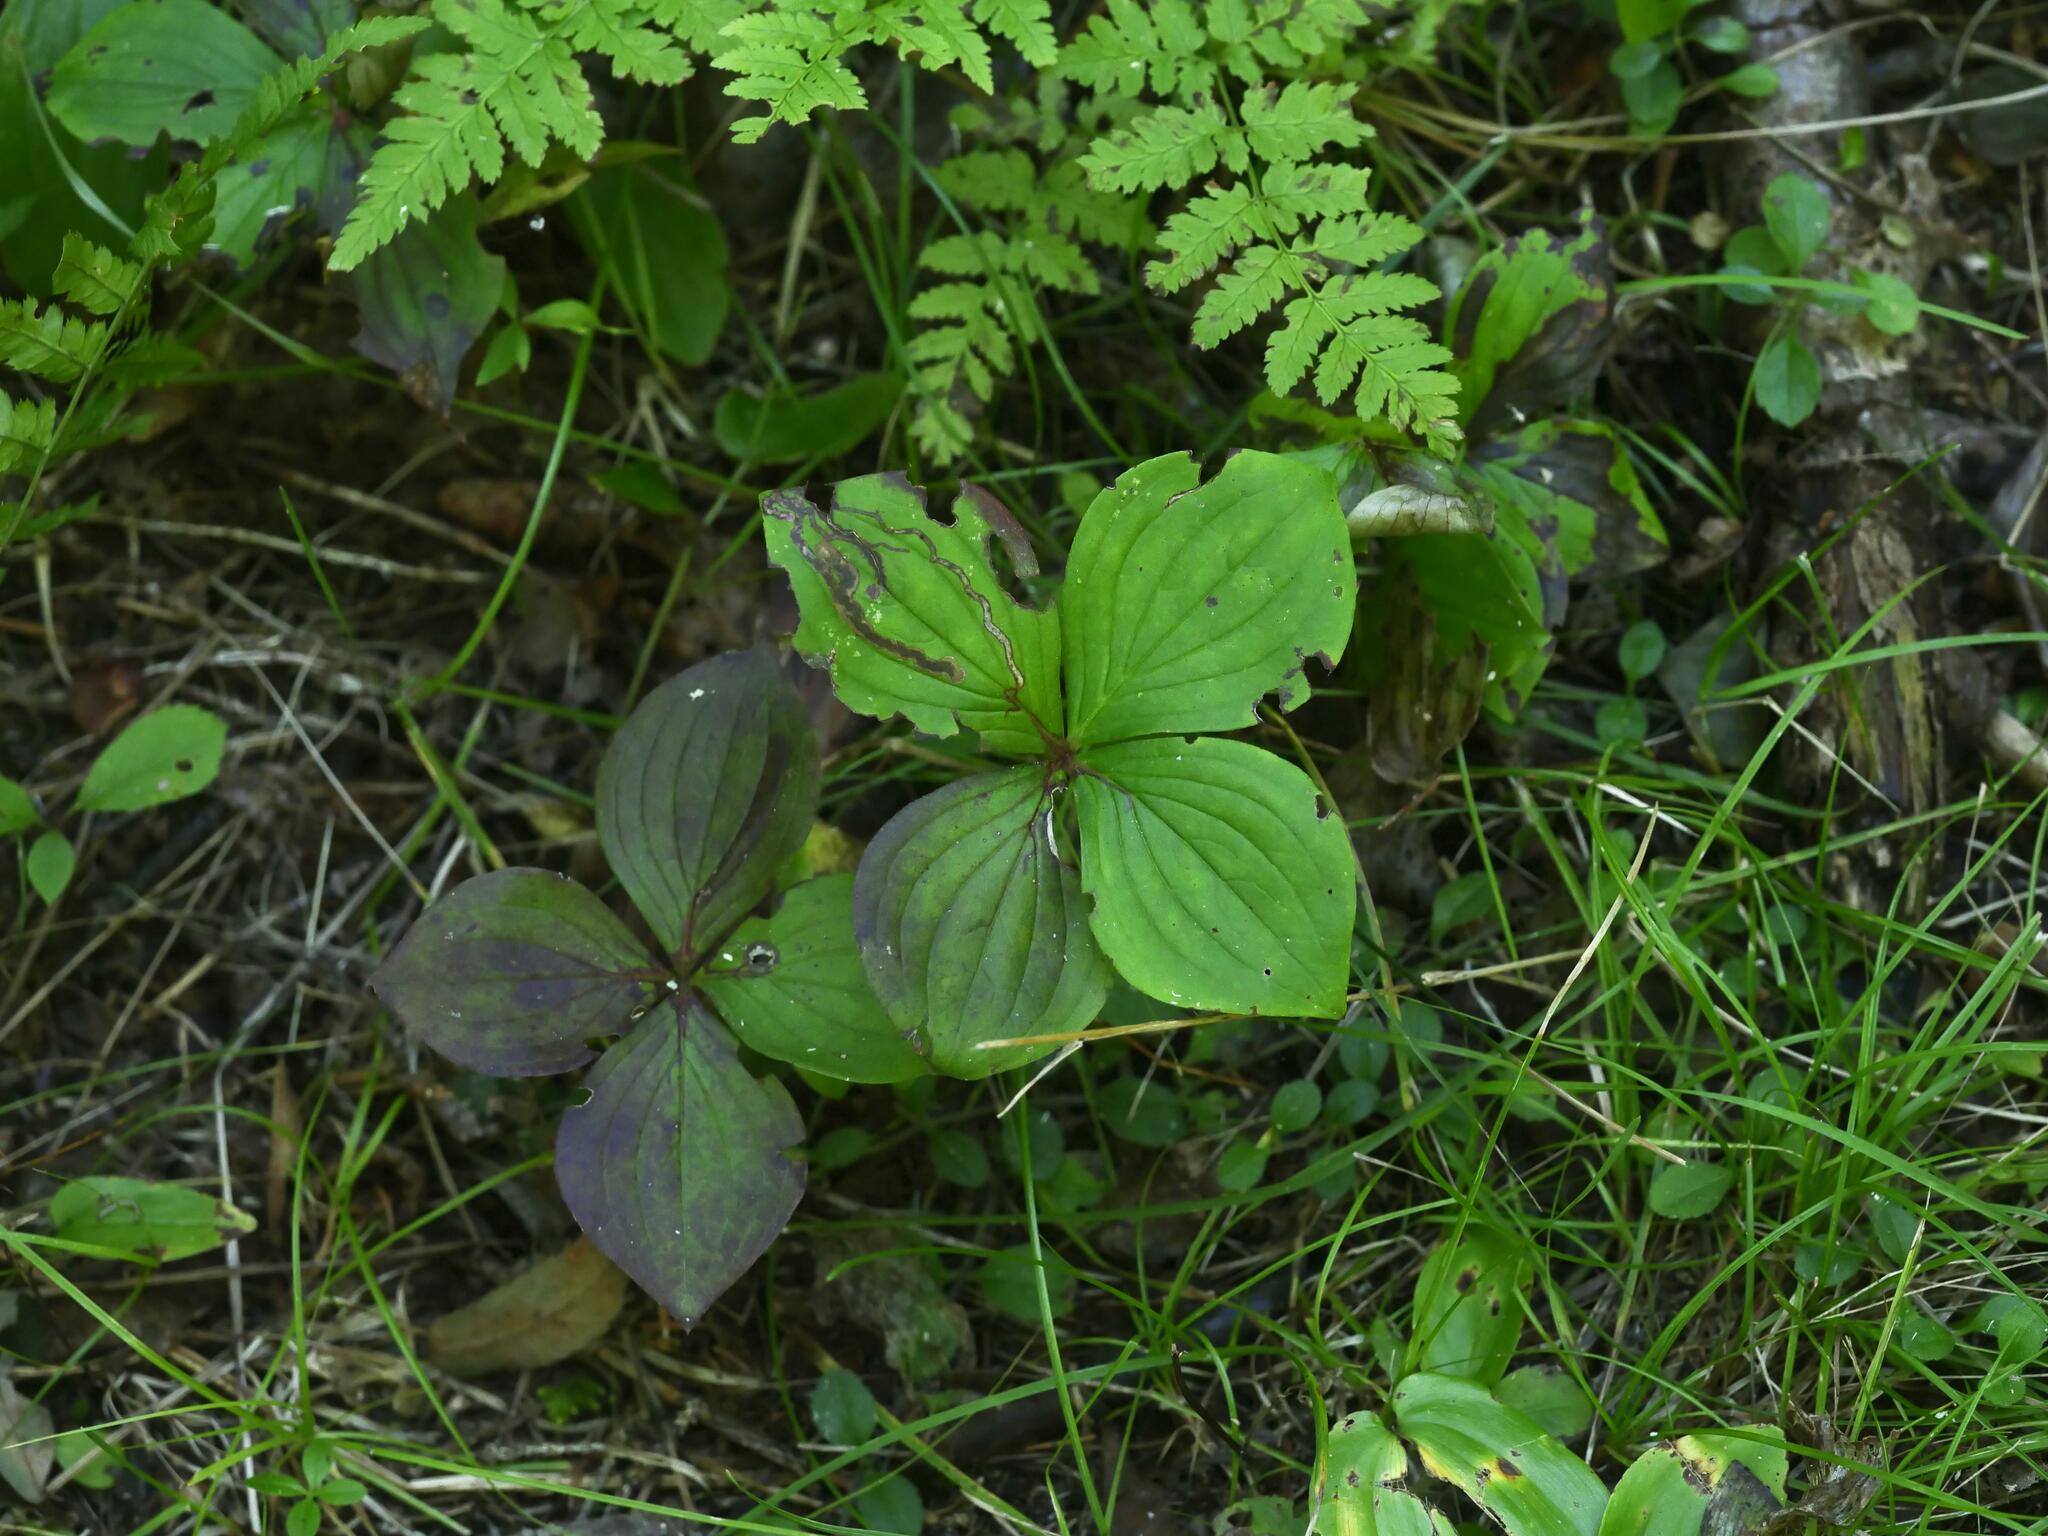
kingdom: Plantae
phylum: Tracheophyta
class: Magnoliopsida
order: Cornales
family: Cornaceae
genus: Cornus
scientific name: Cornus canadensis
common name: Creeping dogwood
